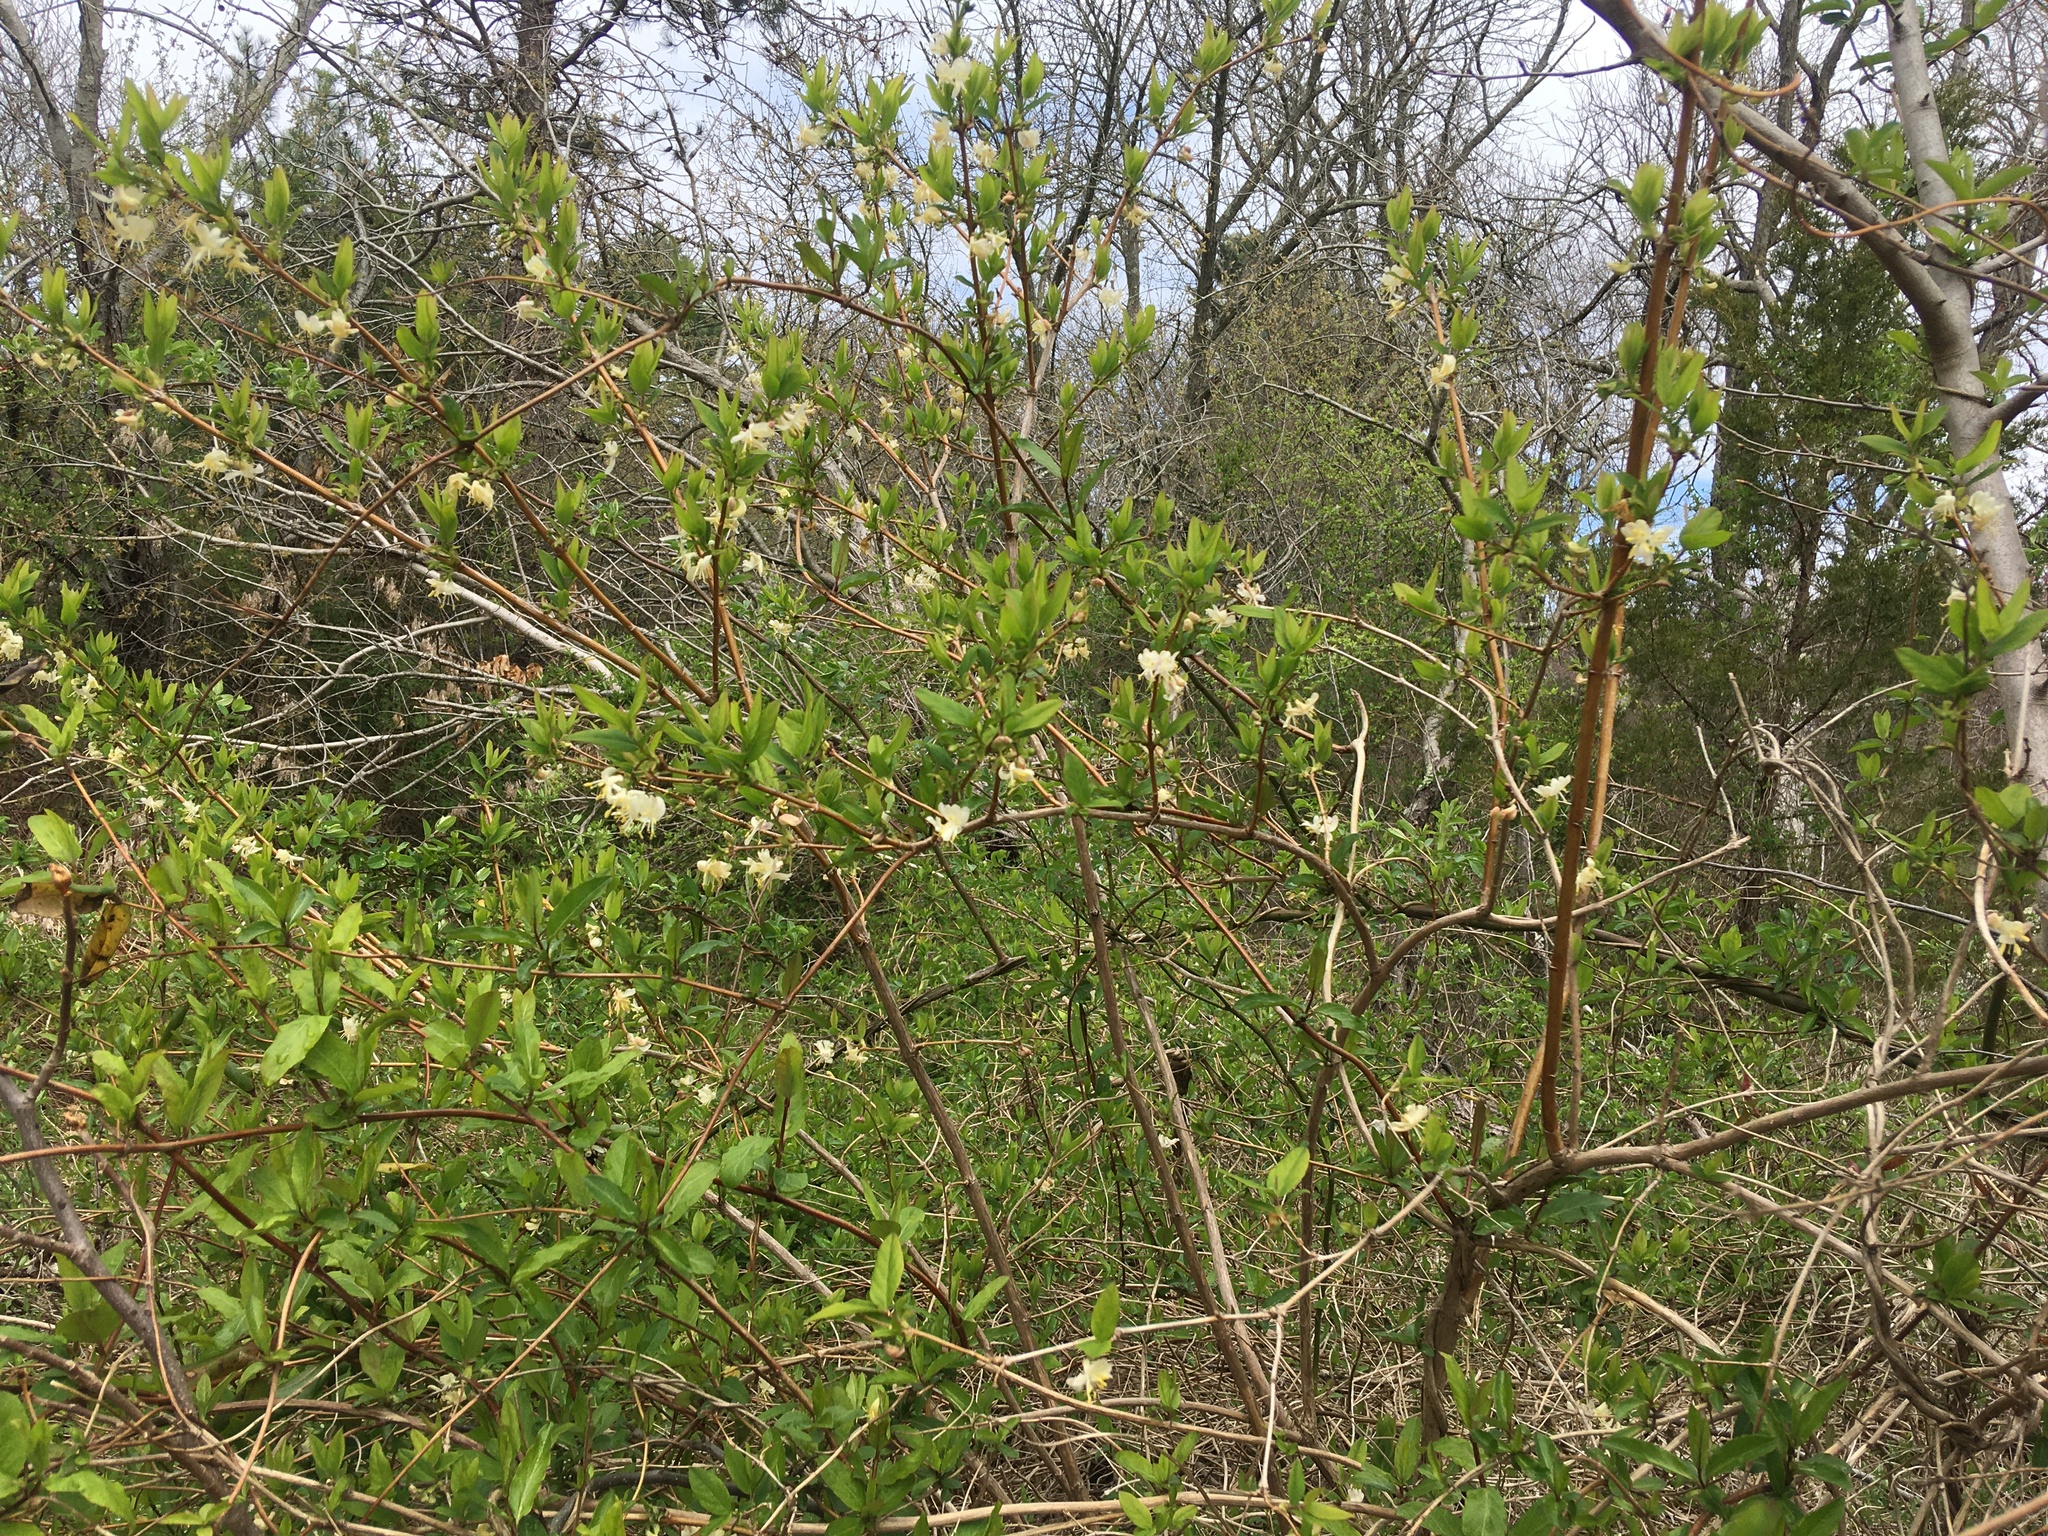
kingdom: Plantae
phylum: Tracheophyta
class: Magnoliopsida
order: Dipsacales
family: Caprifoliaceae
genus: Lonicera
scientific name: Lonicera fragrantissima
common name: Fragrant honeysuckle
